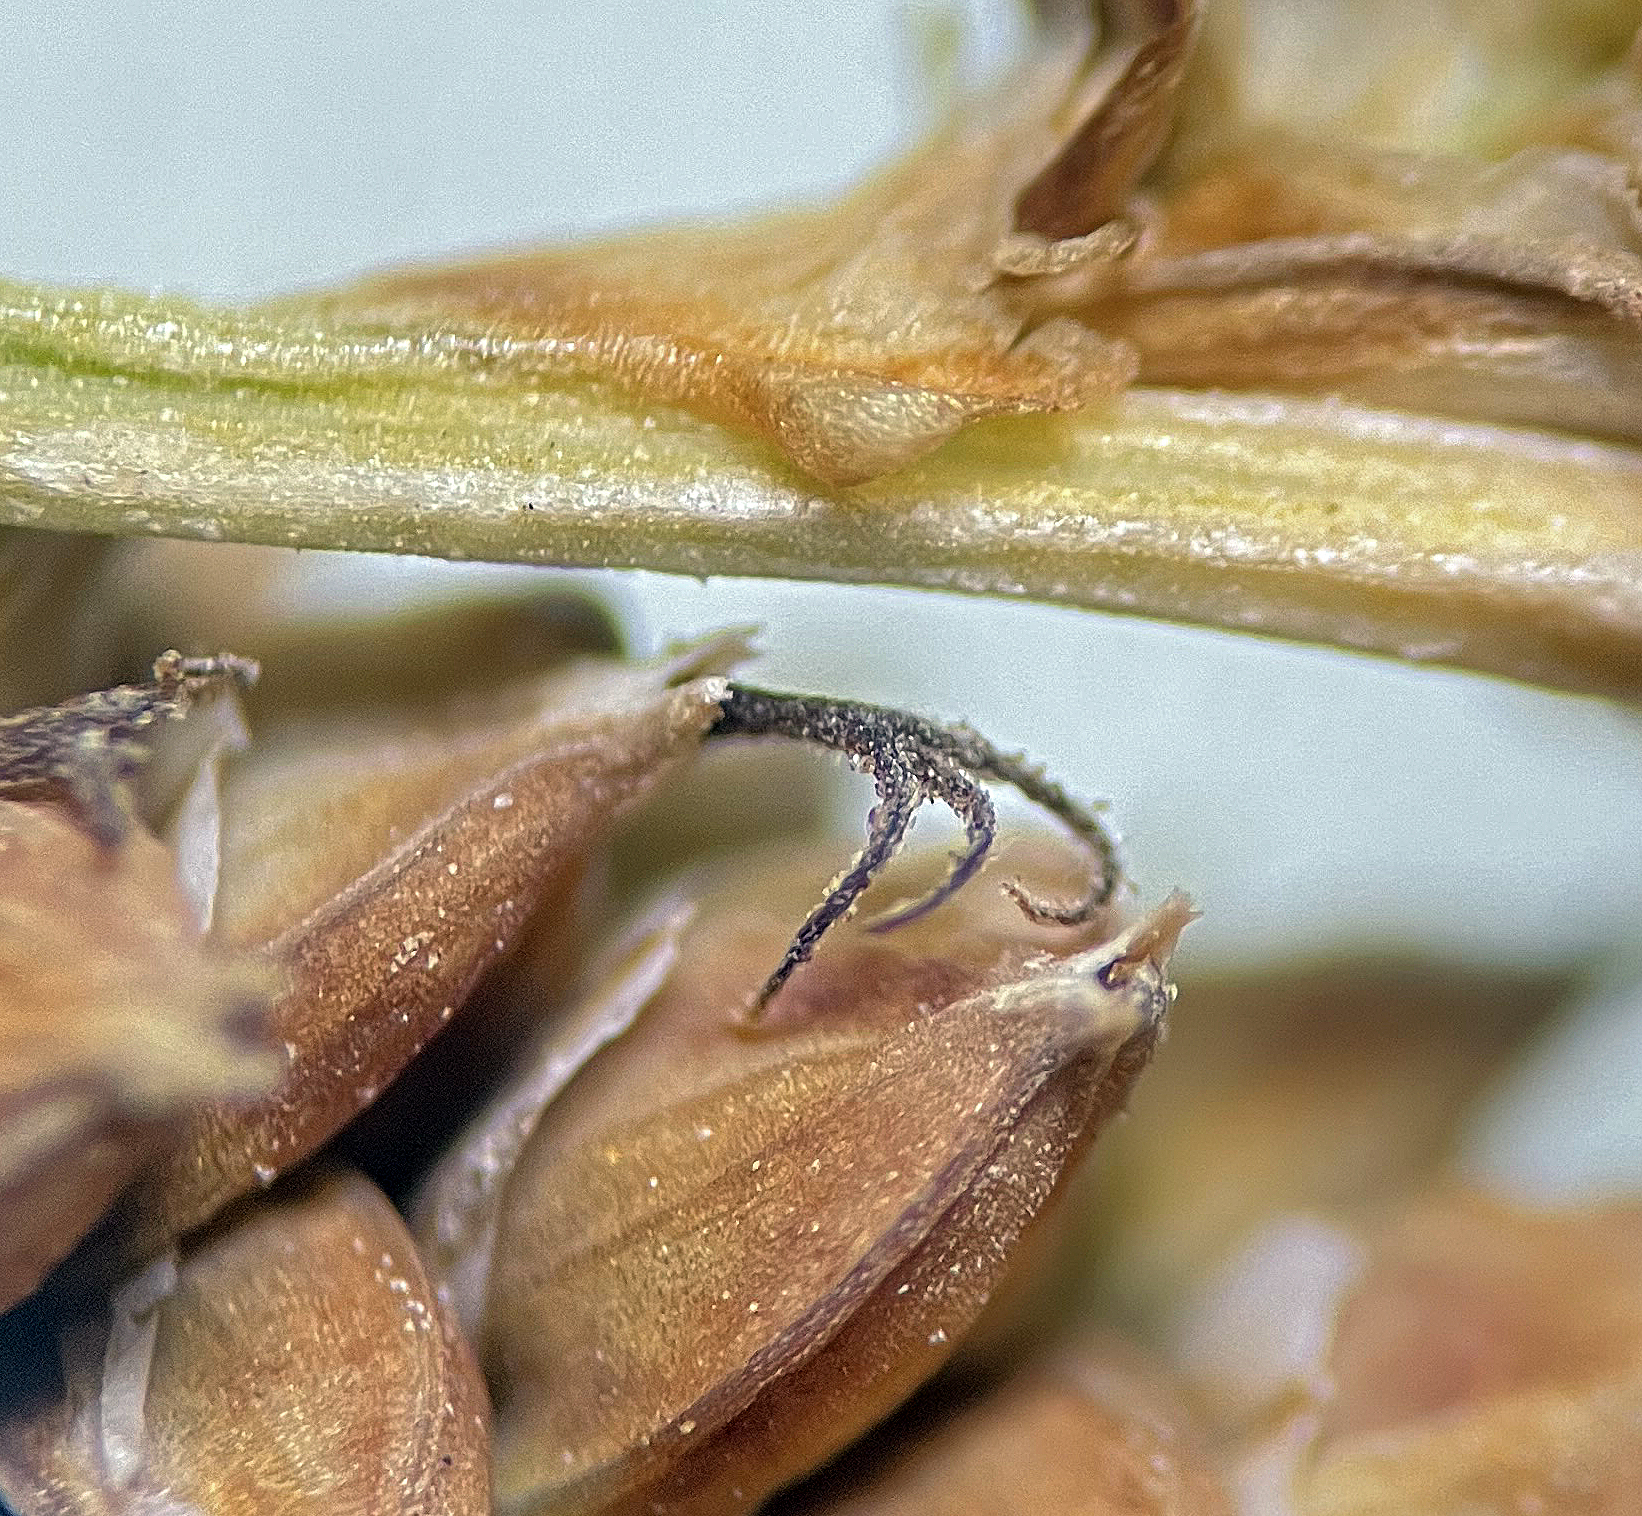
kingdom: Plantae
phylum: Tracheophyta
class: Liliopsida
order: Poales
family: Cyperaceae
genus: Carex
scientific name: Carex holmgreniorum
